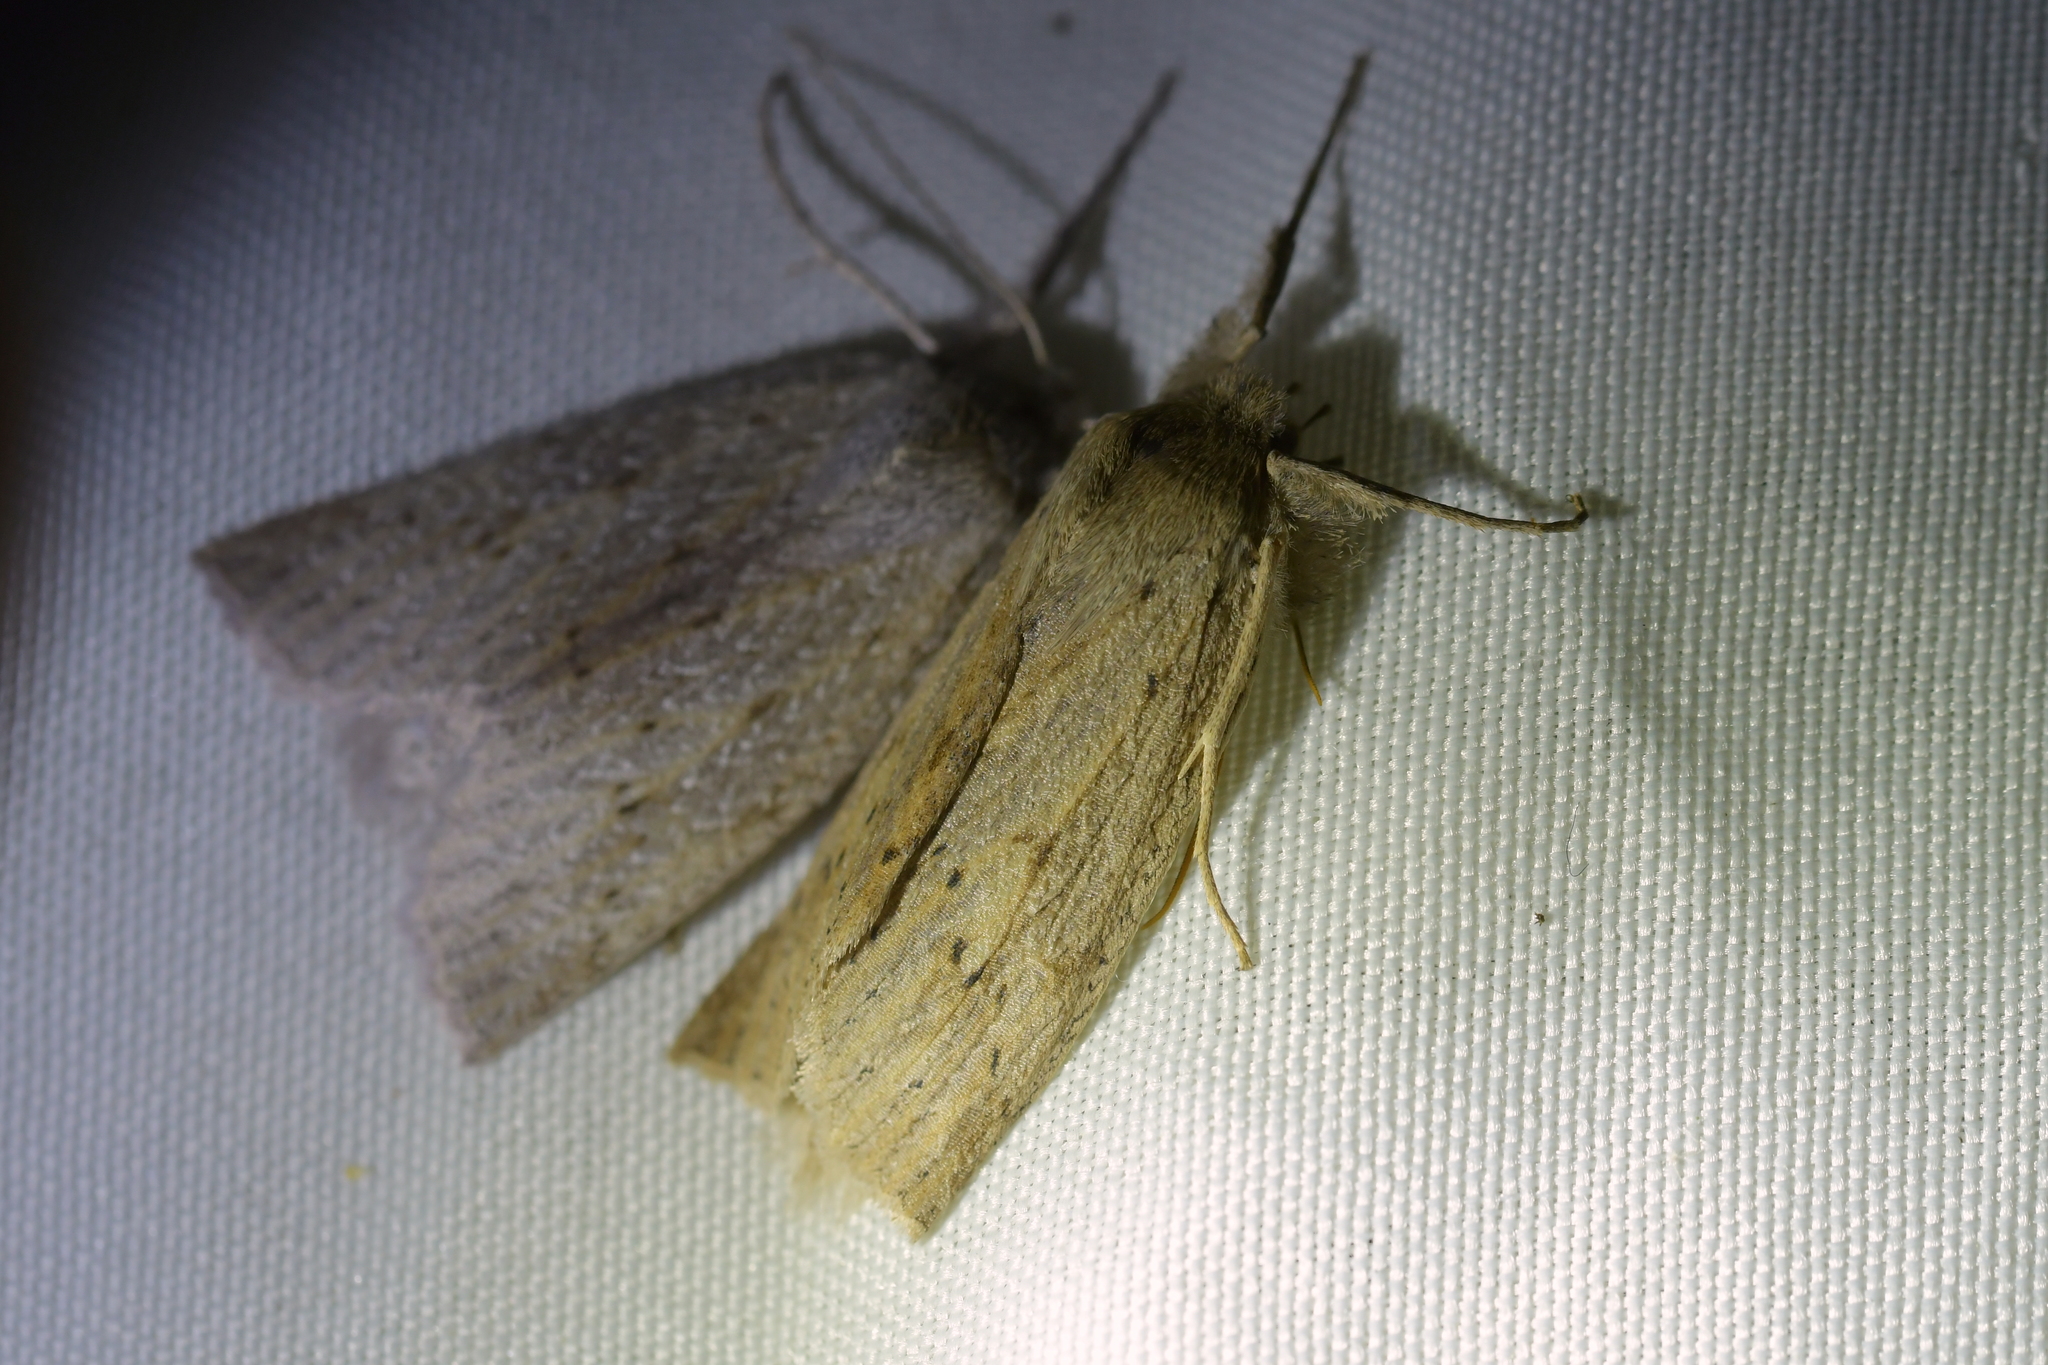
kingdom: Animalia
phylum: Arthropoda
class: Insecta
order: Lepidoptera
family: Geometridae
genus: Declana
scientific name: Declana leptomera
